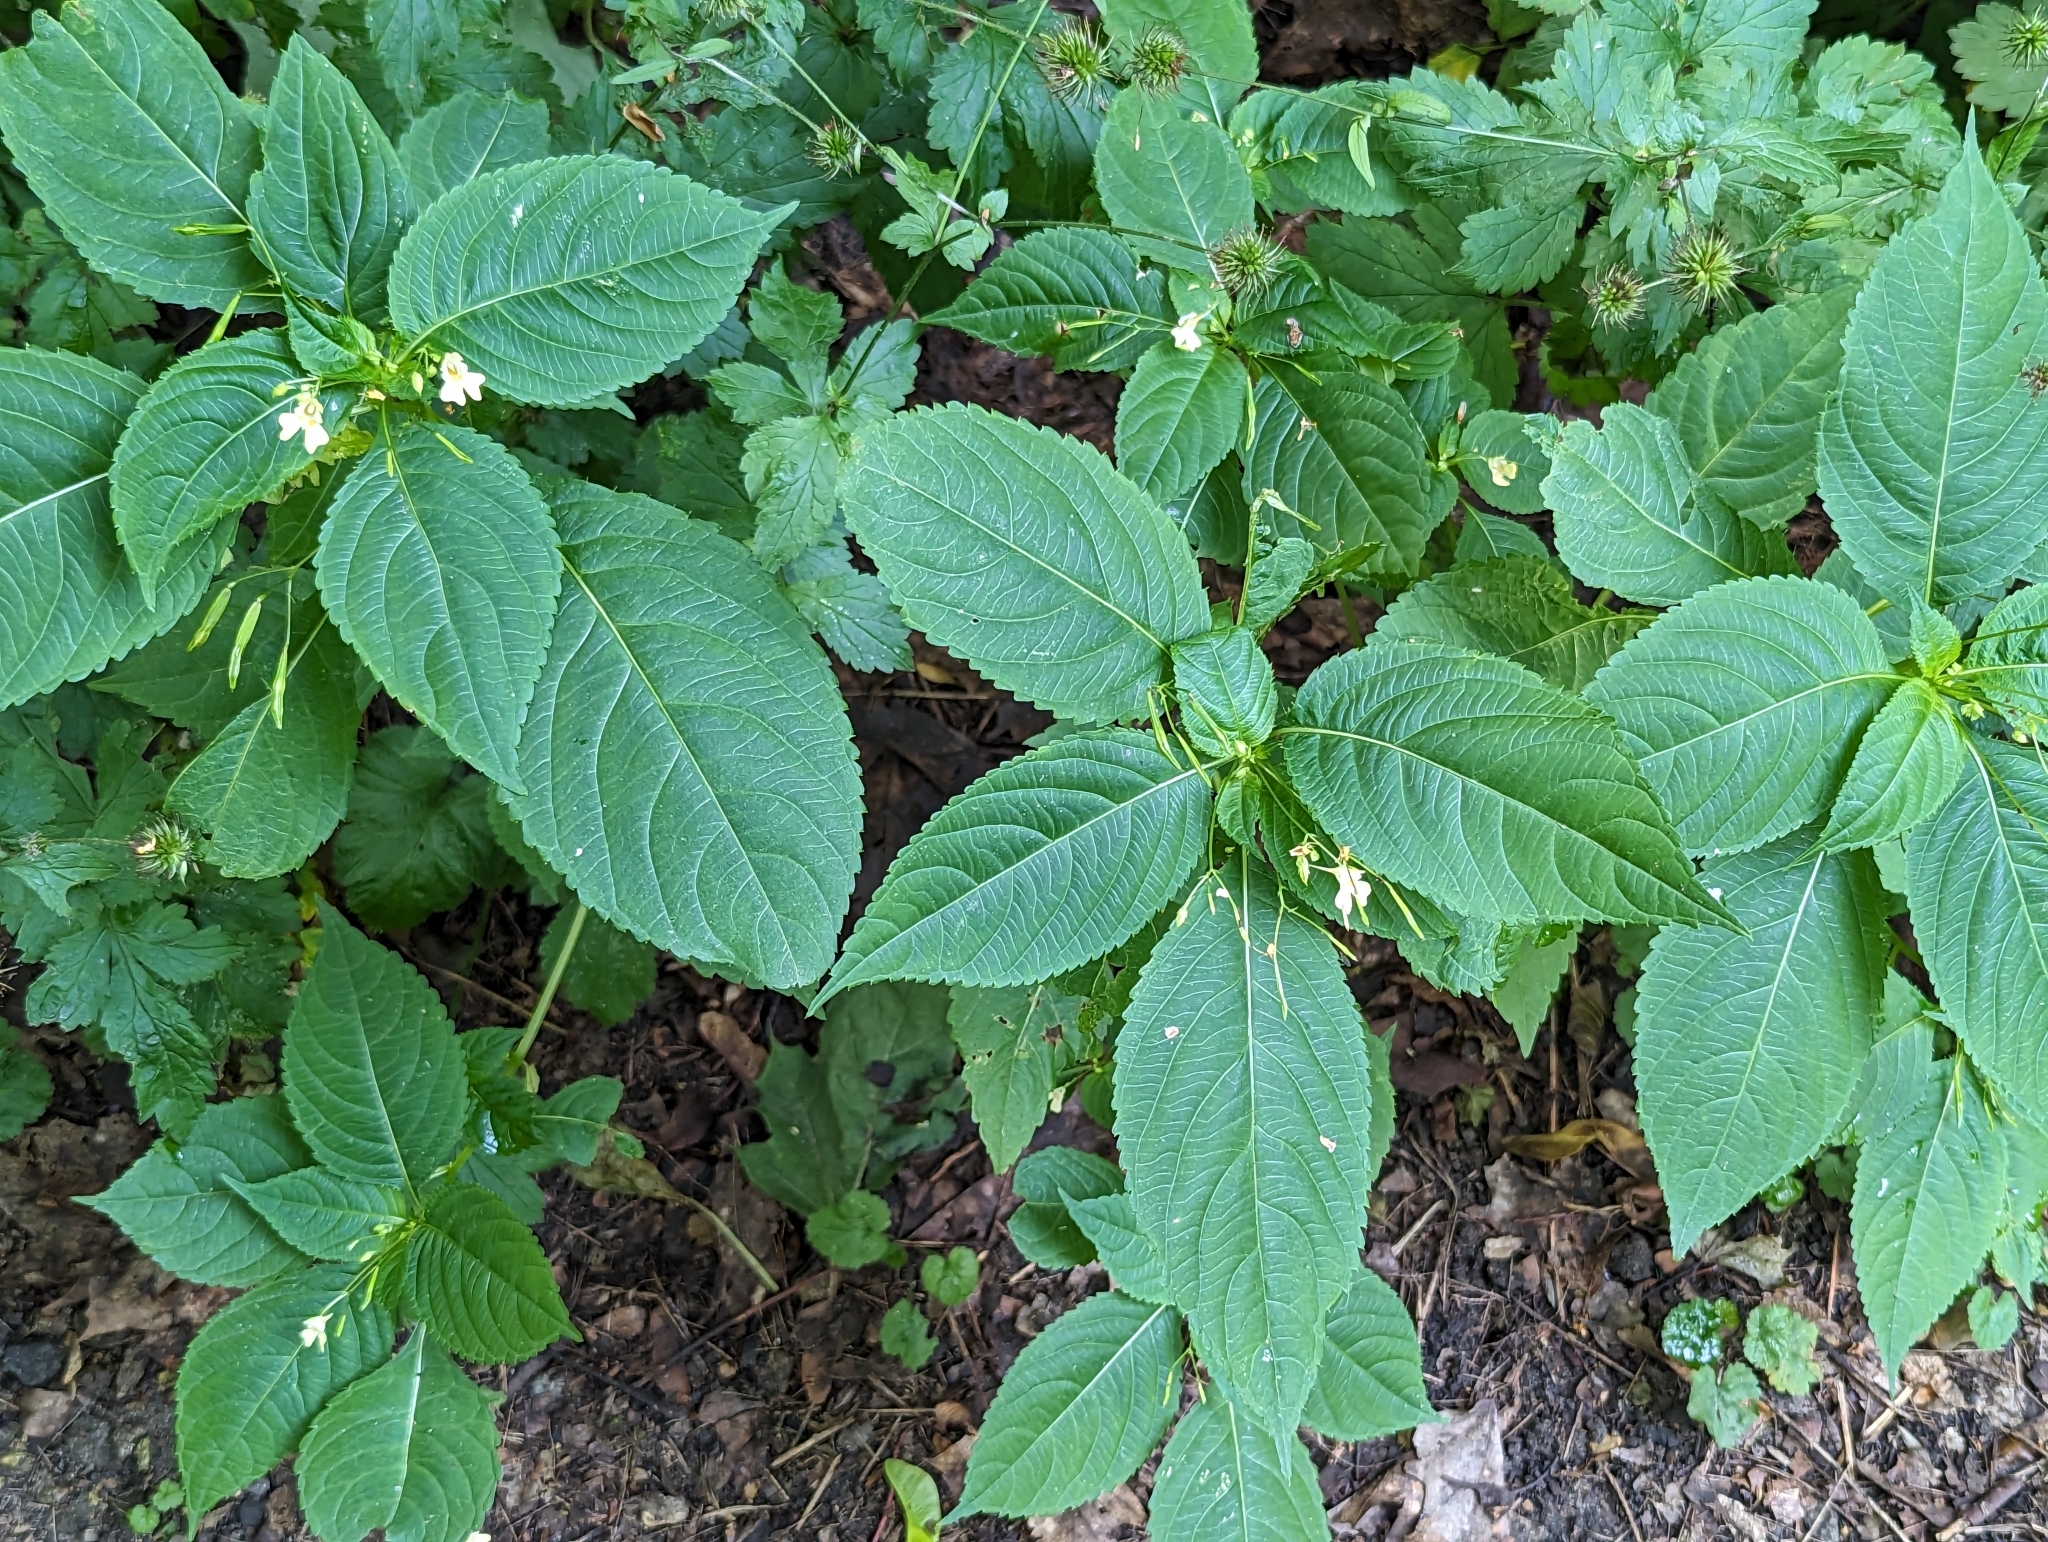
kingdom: Plantae
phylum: Tracheophyta
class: Magnoliopsida
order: Ericales
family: Balsaminaceae
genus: Impatiens
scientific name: Impatiens parviflora
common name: Small balsam
